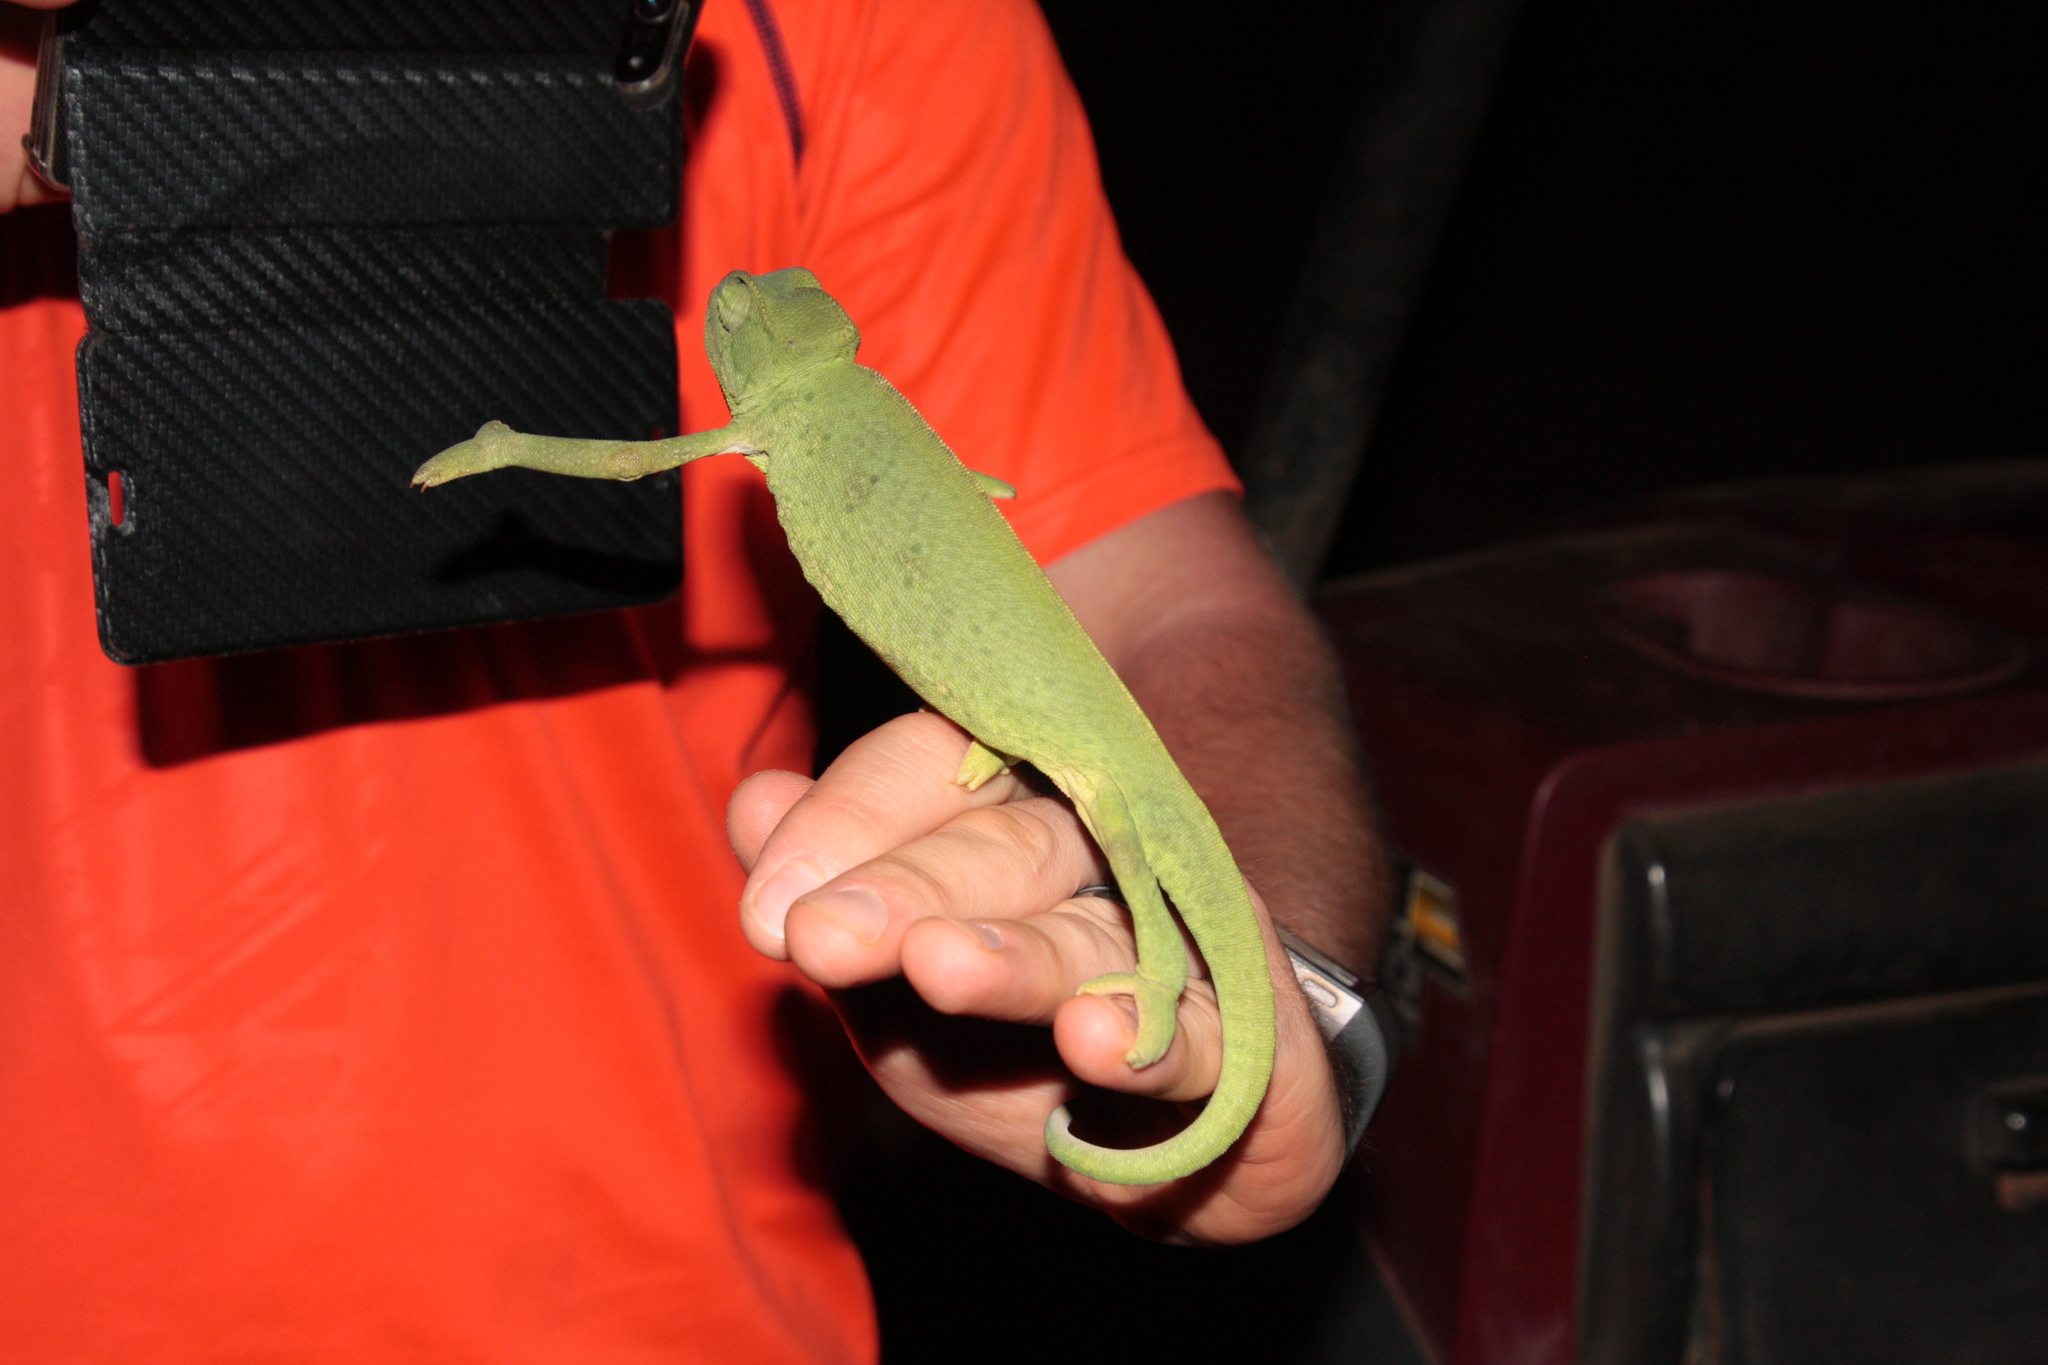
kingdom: Animalia
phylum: Chordata
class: Squamata
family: Chamaeleonidae
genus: Chamaeleo
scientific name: Chamaeleo africanus
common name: African chameleon
